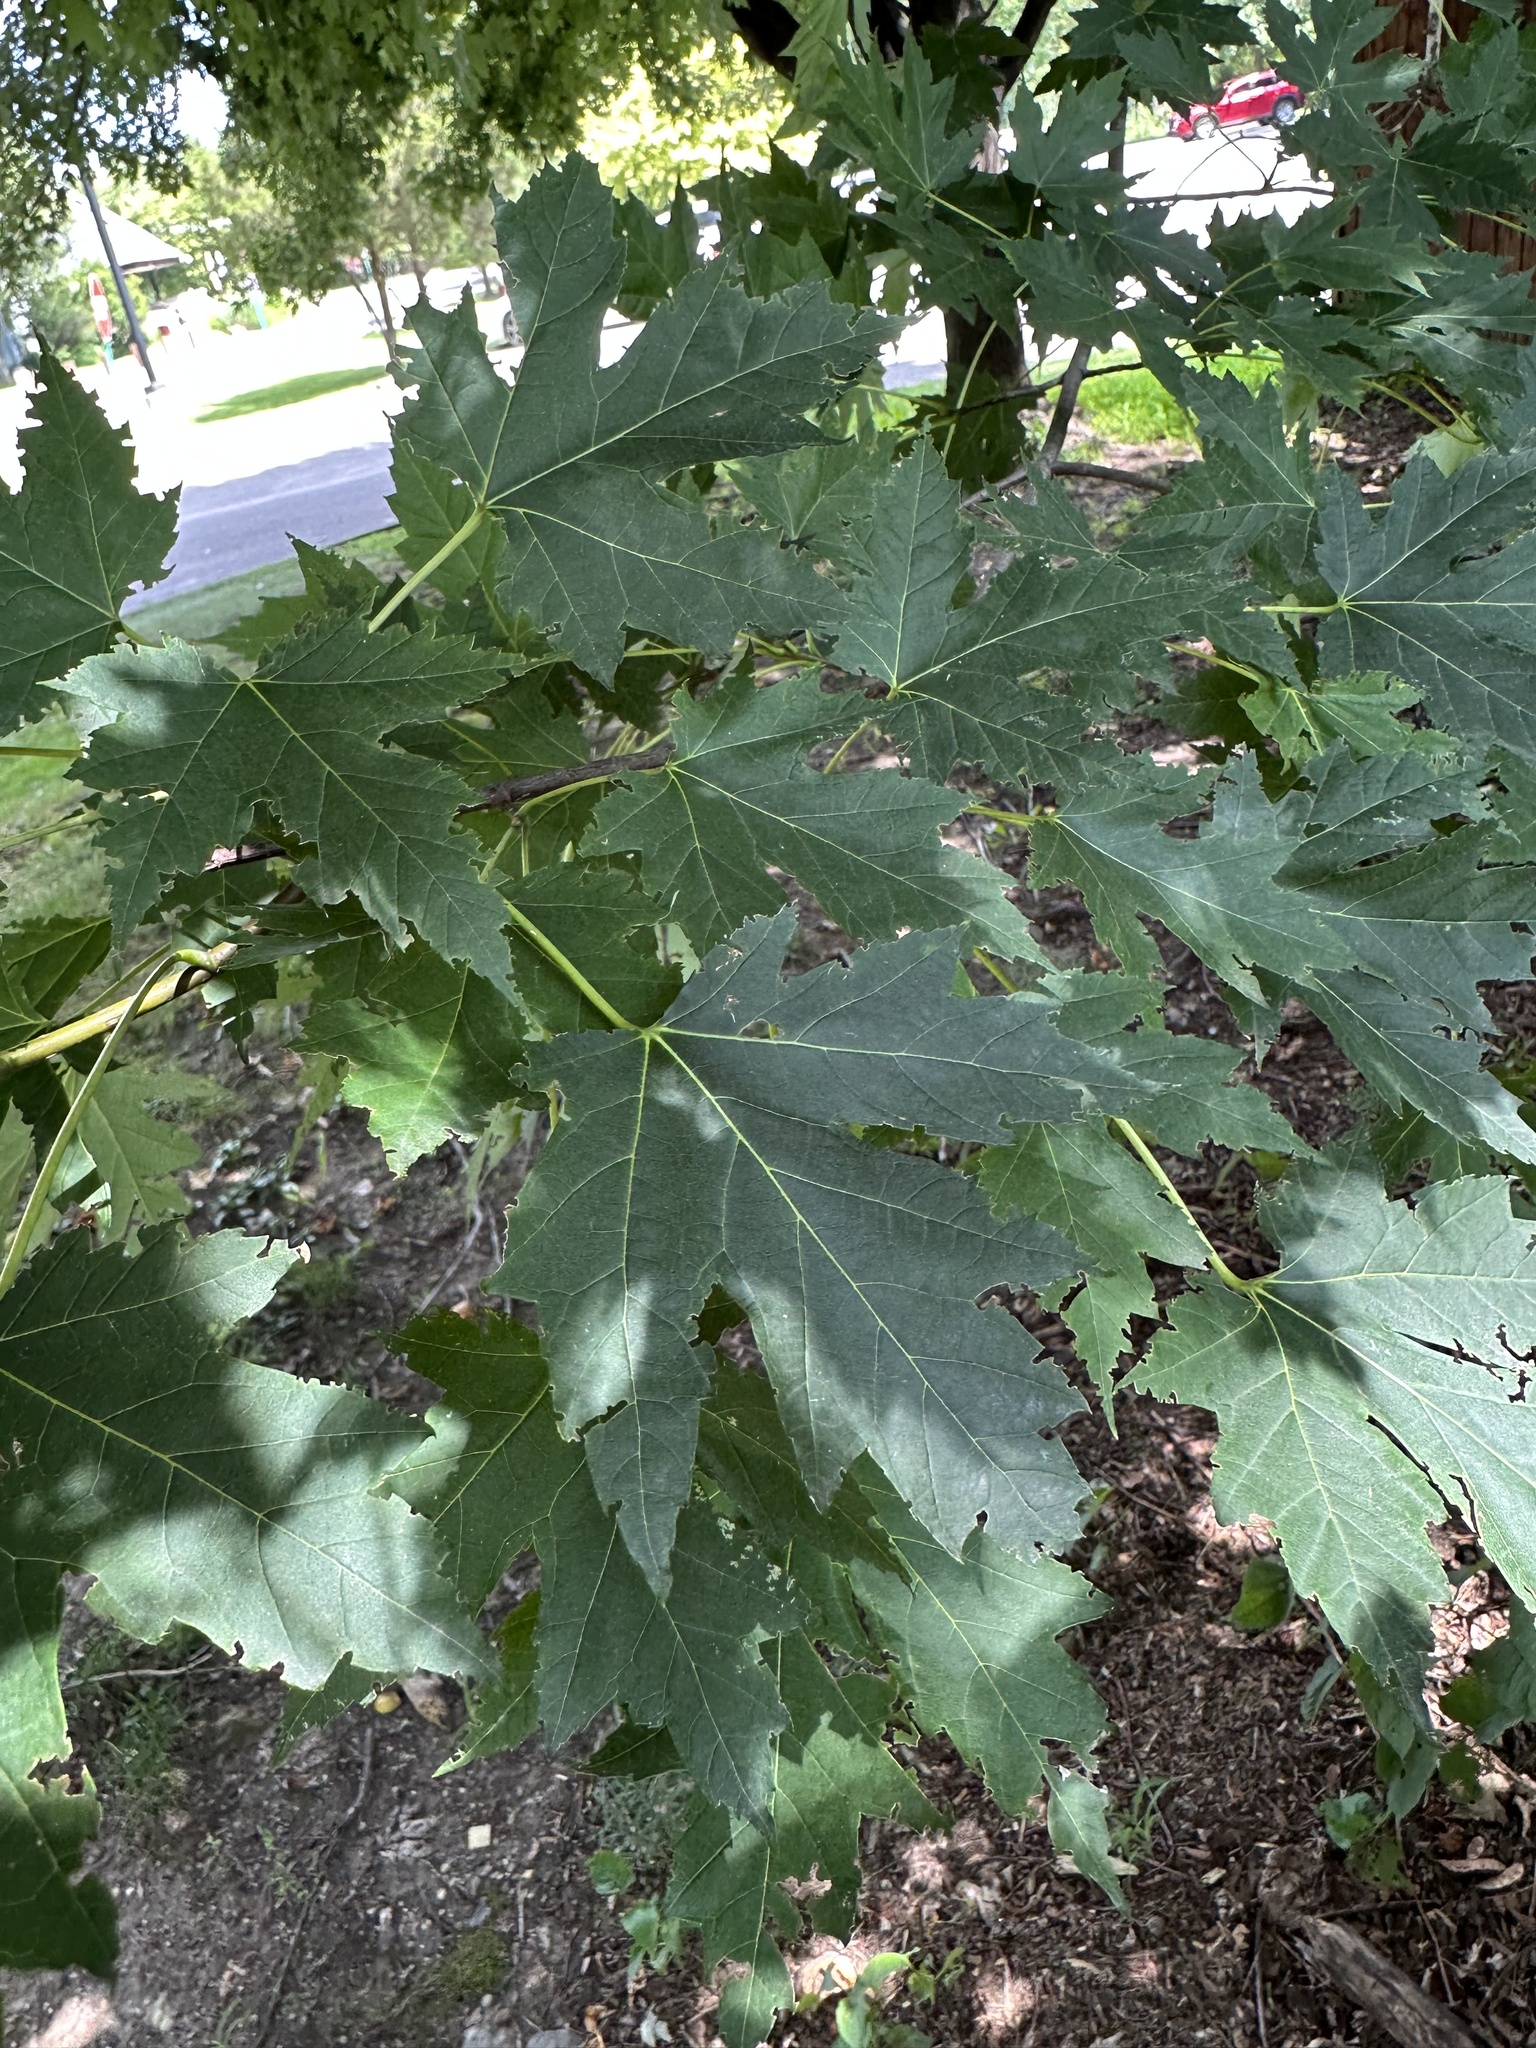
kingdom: Plantae
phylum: Tracheophyta
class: Magnoliopsida
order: Sapindales
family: Sapindaceae
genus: Acer
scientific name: Acer saccharinum
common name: Silver maple
